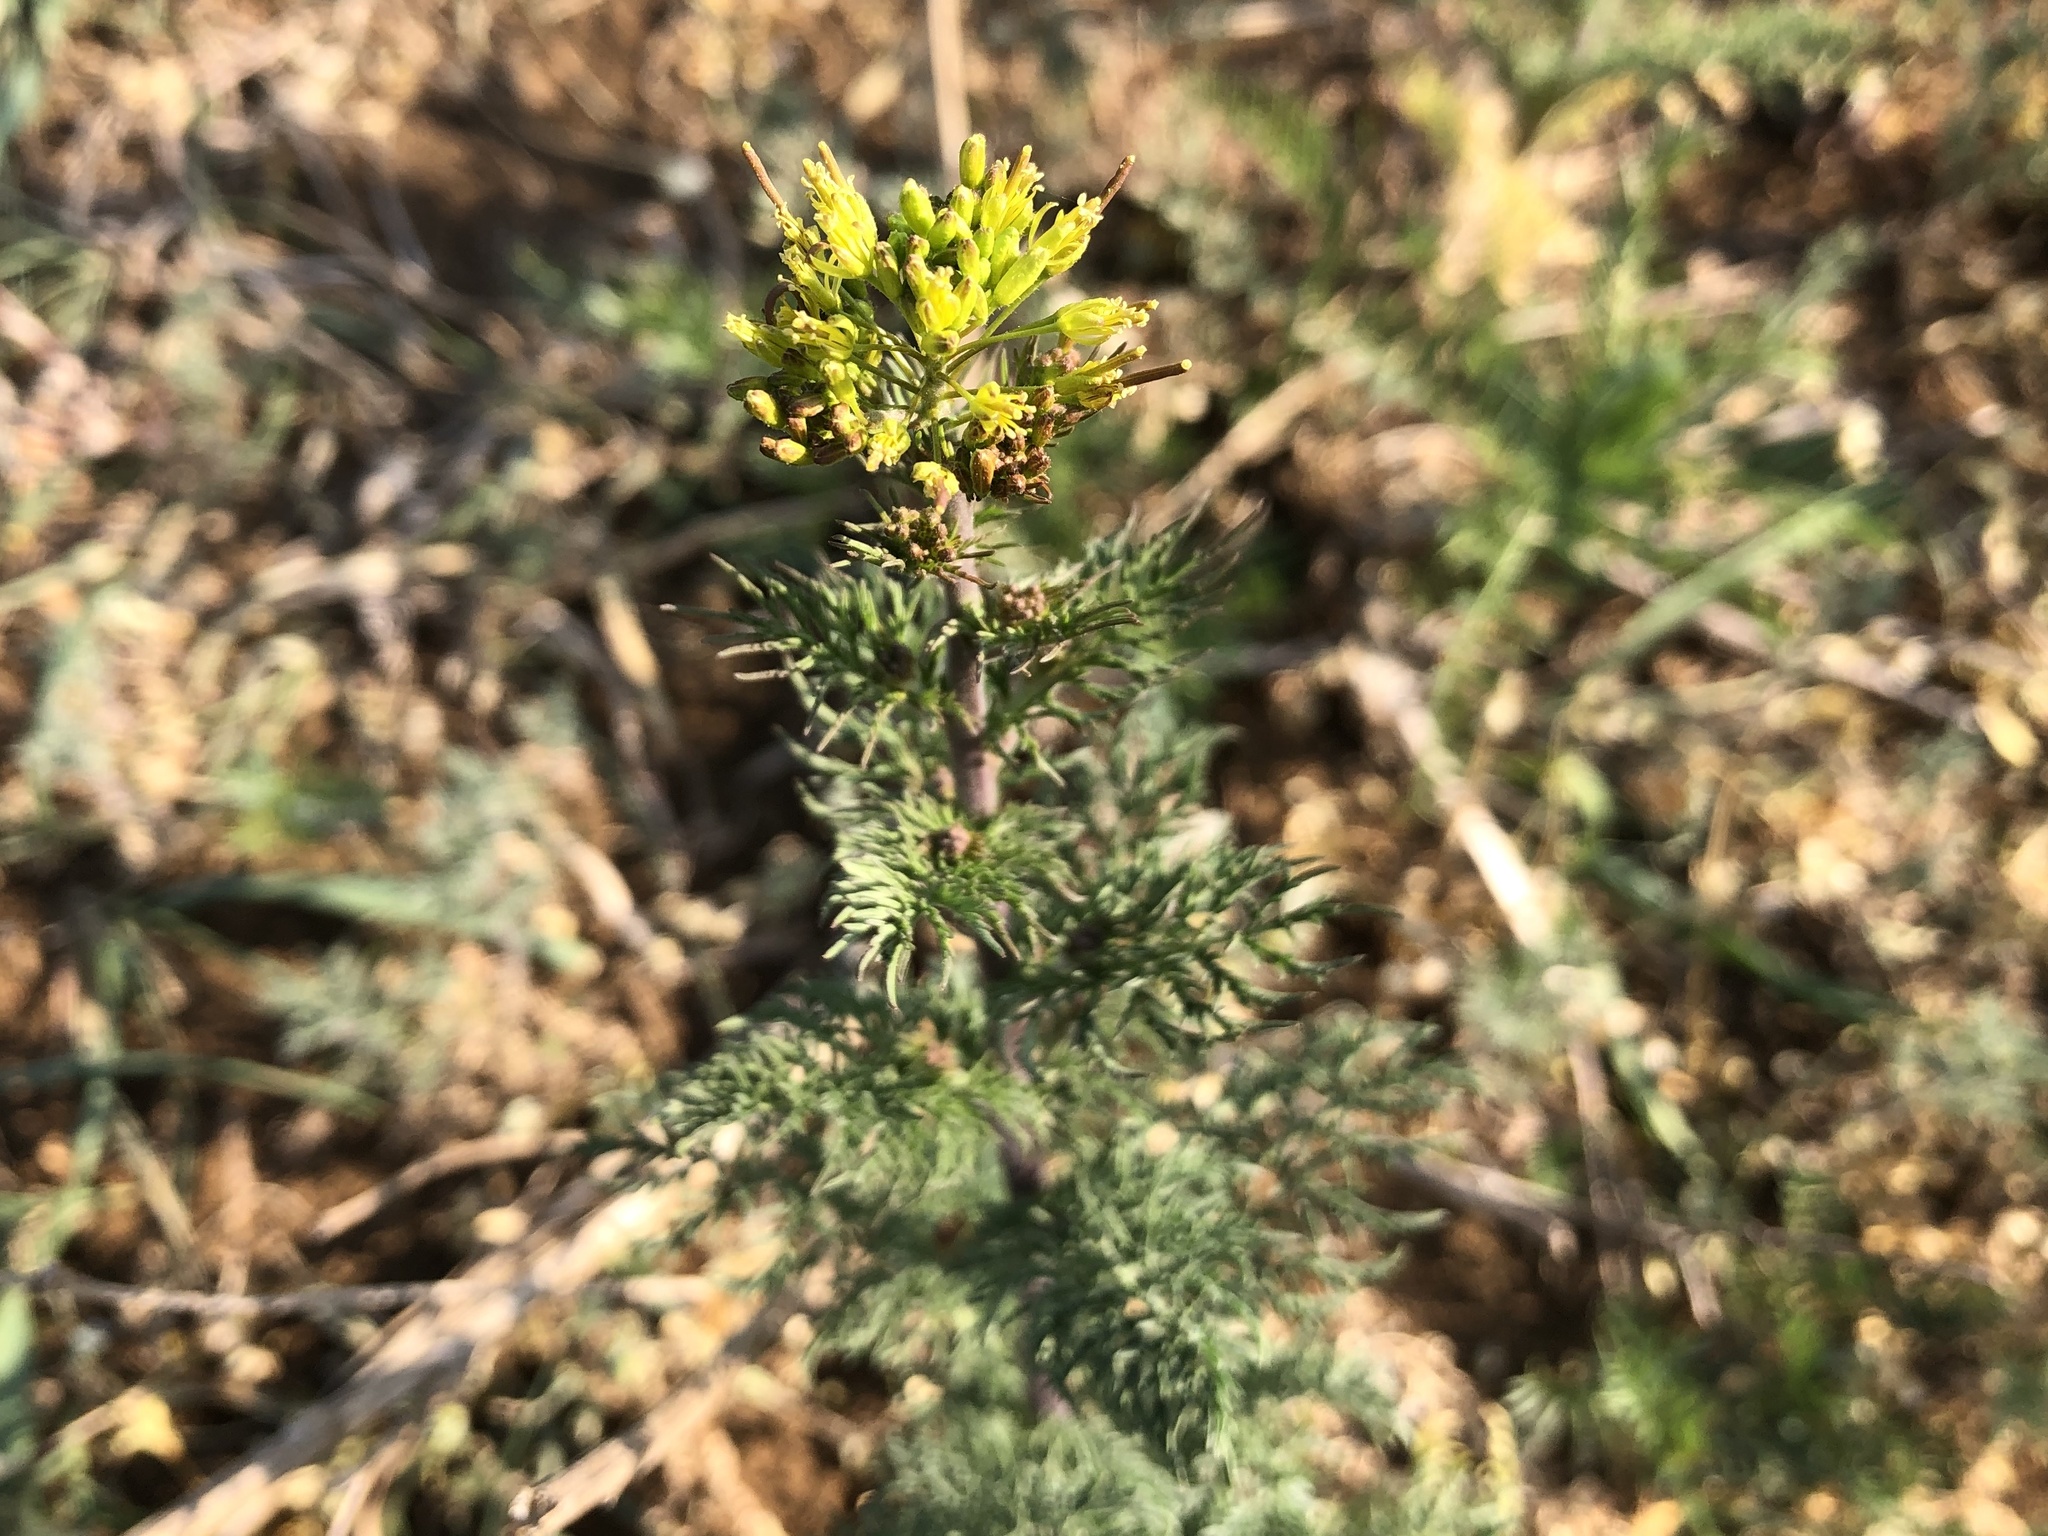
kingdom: Plantae
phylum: Tracheophyta
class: Magnoliopsida
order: Brassicales
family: Brassicaceae
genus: Descurainia
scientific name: Descurainia sophia
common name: Flixweed
